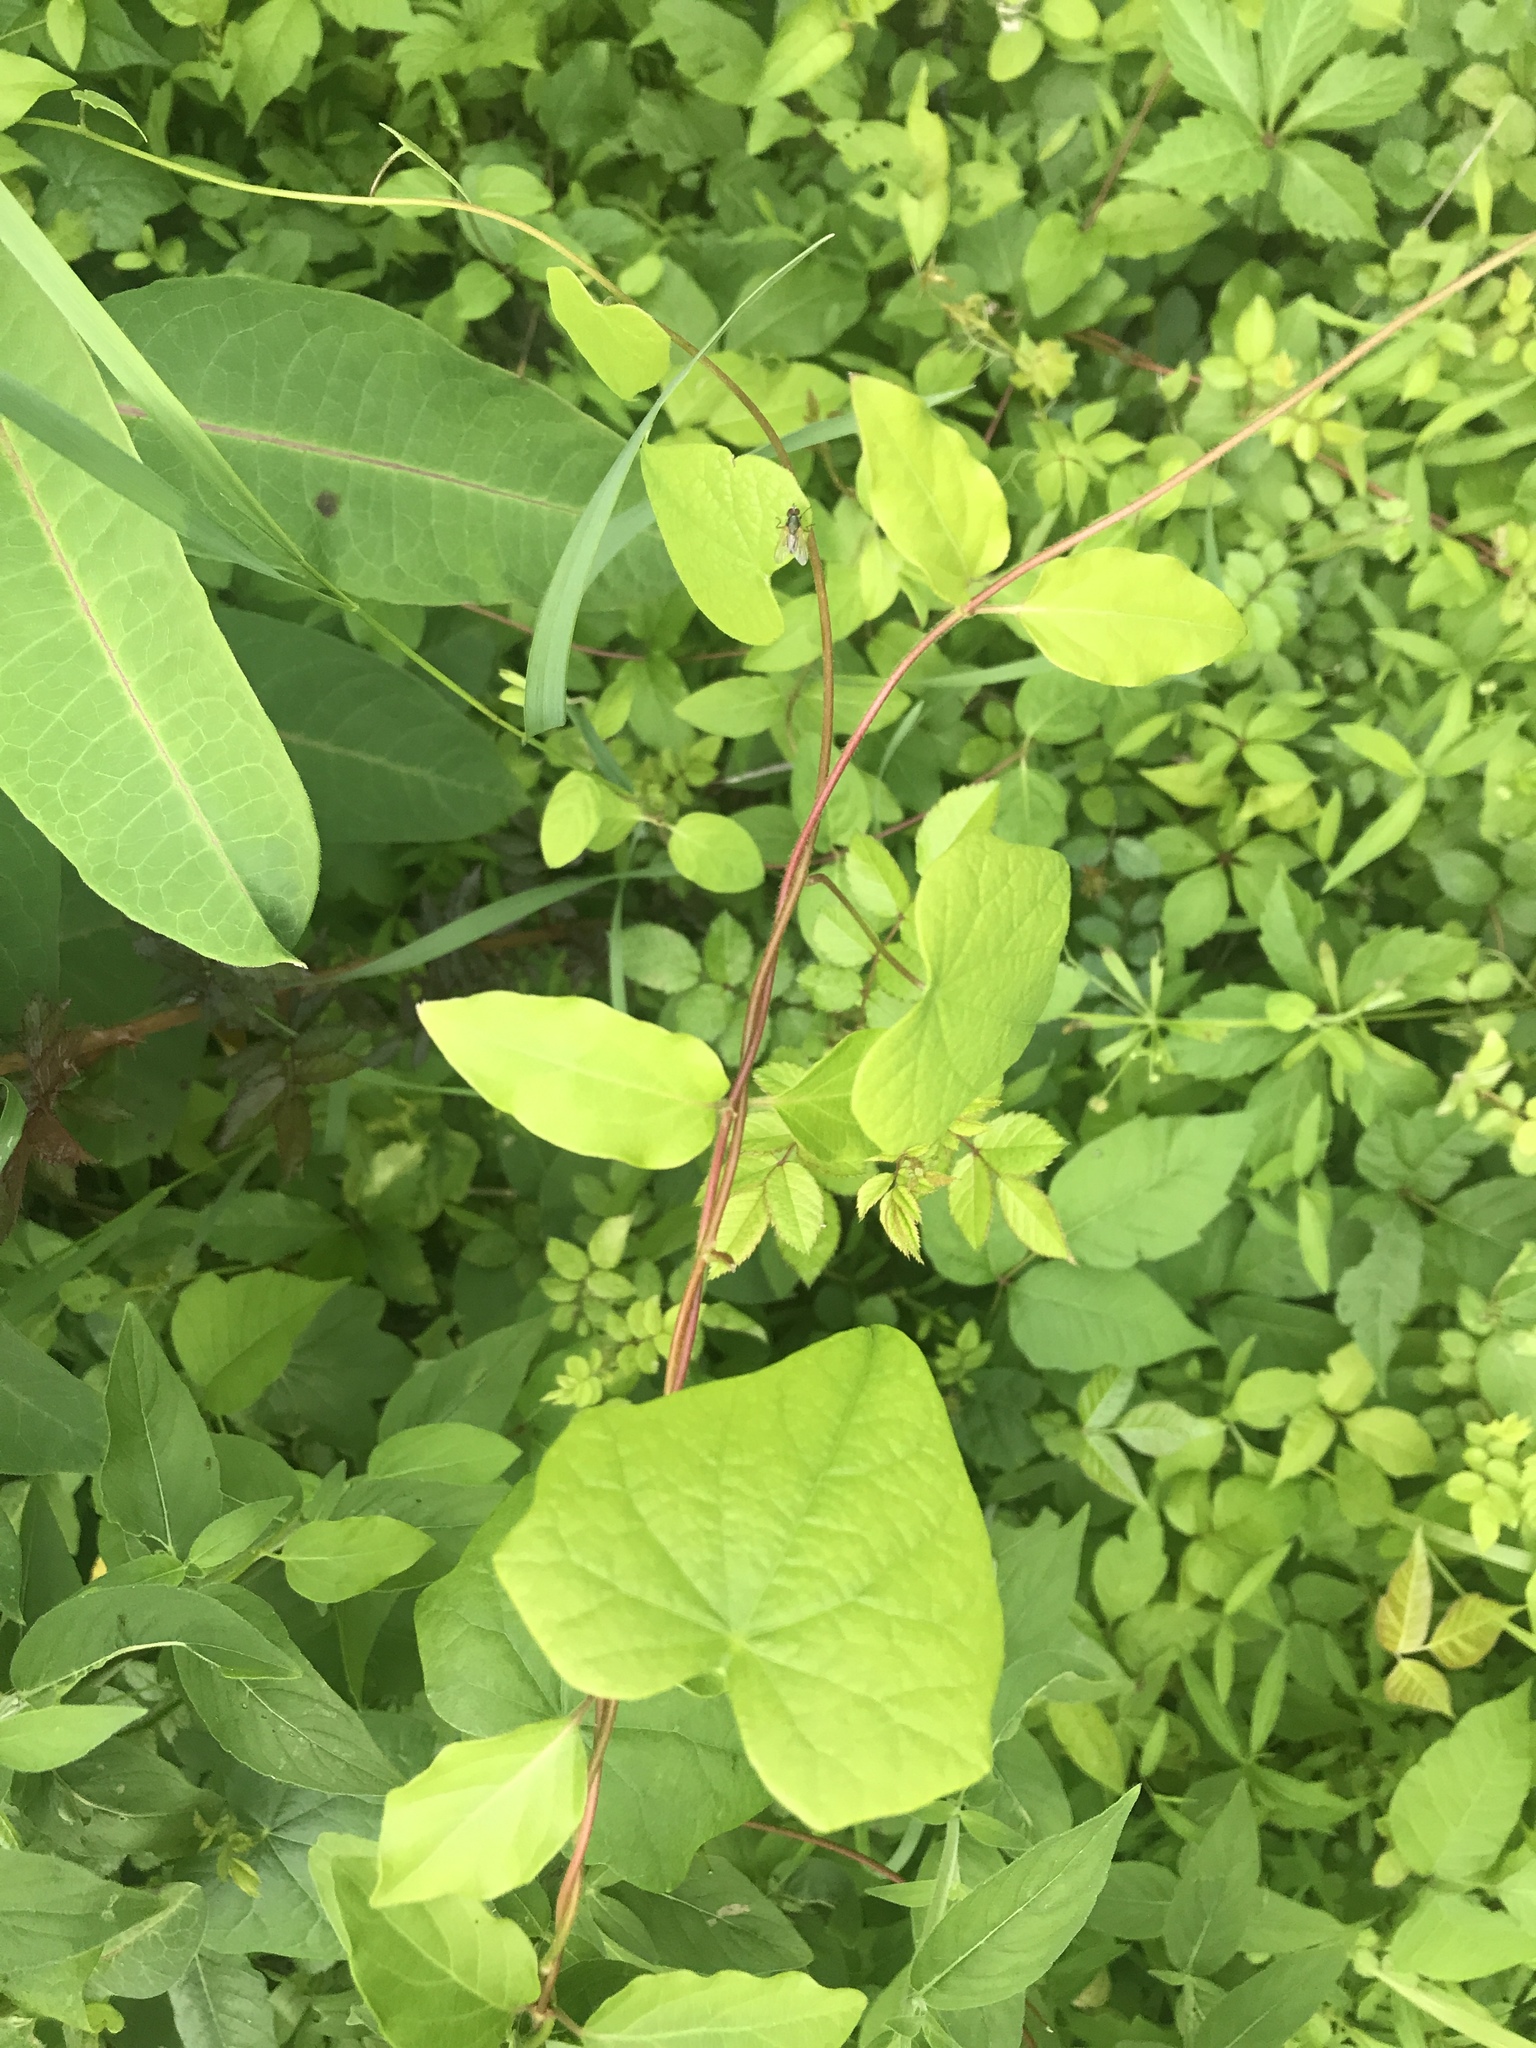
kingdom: Plantae
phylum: Tracheophyta
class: Magnoliopsida
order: Ranunculales
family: Menispermaceae
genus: Menispermum
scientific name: Menispermum canadense
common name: Moonseed
